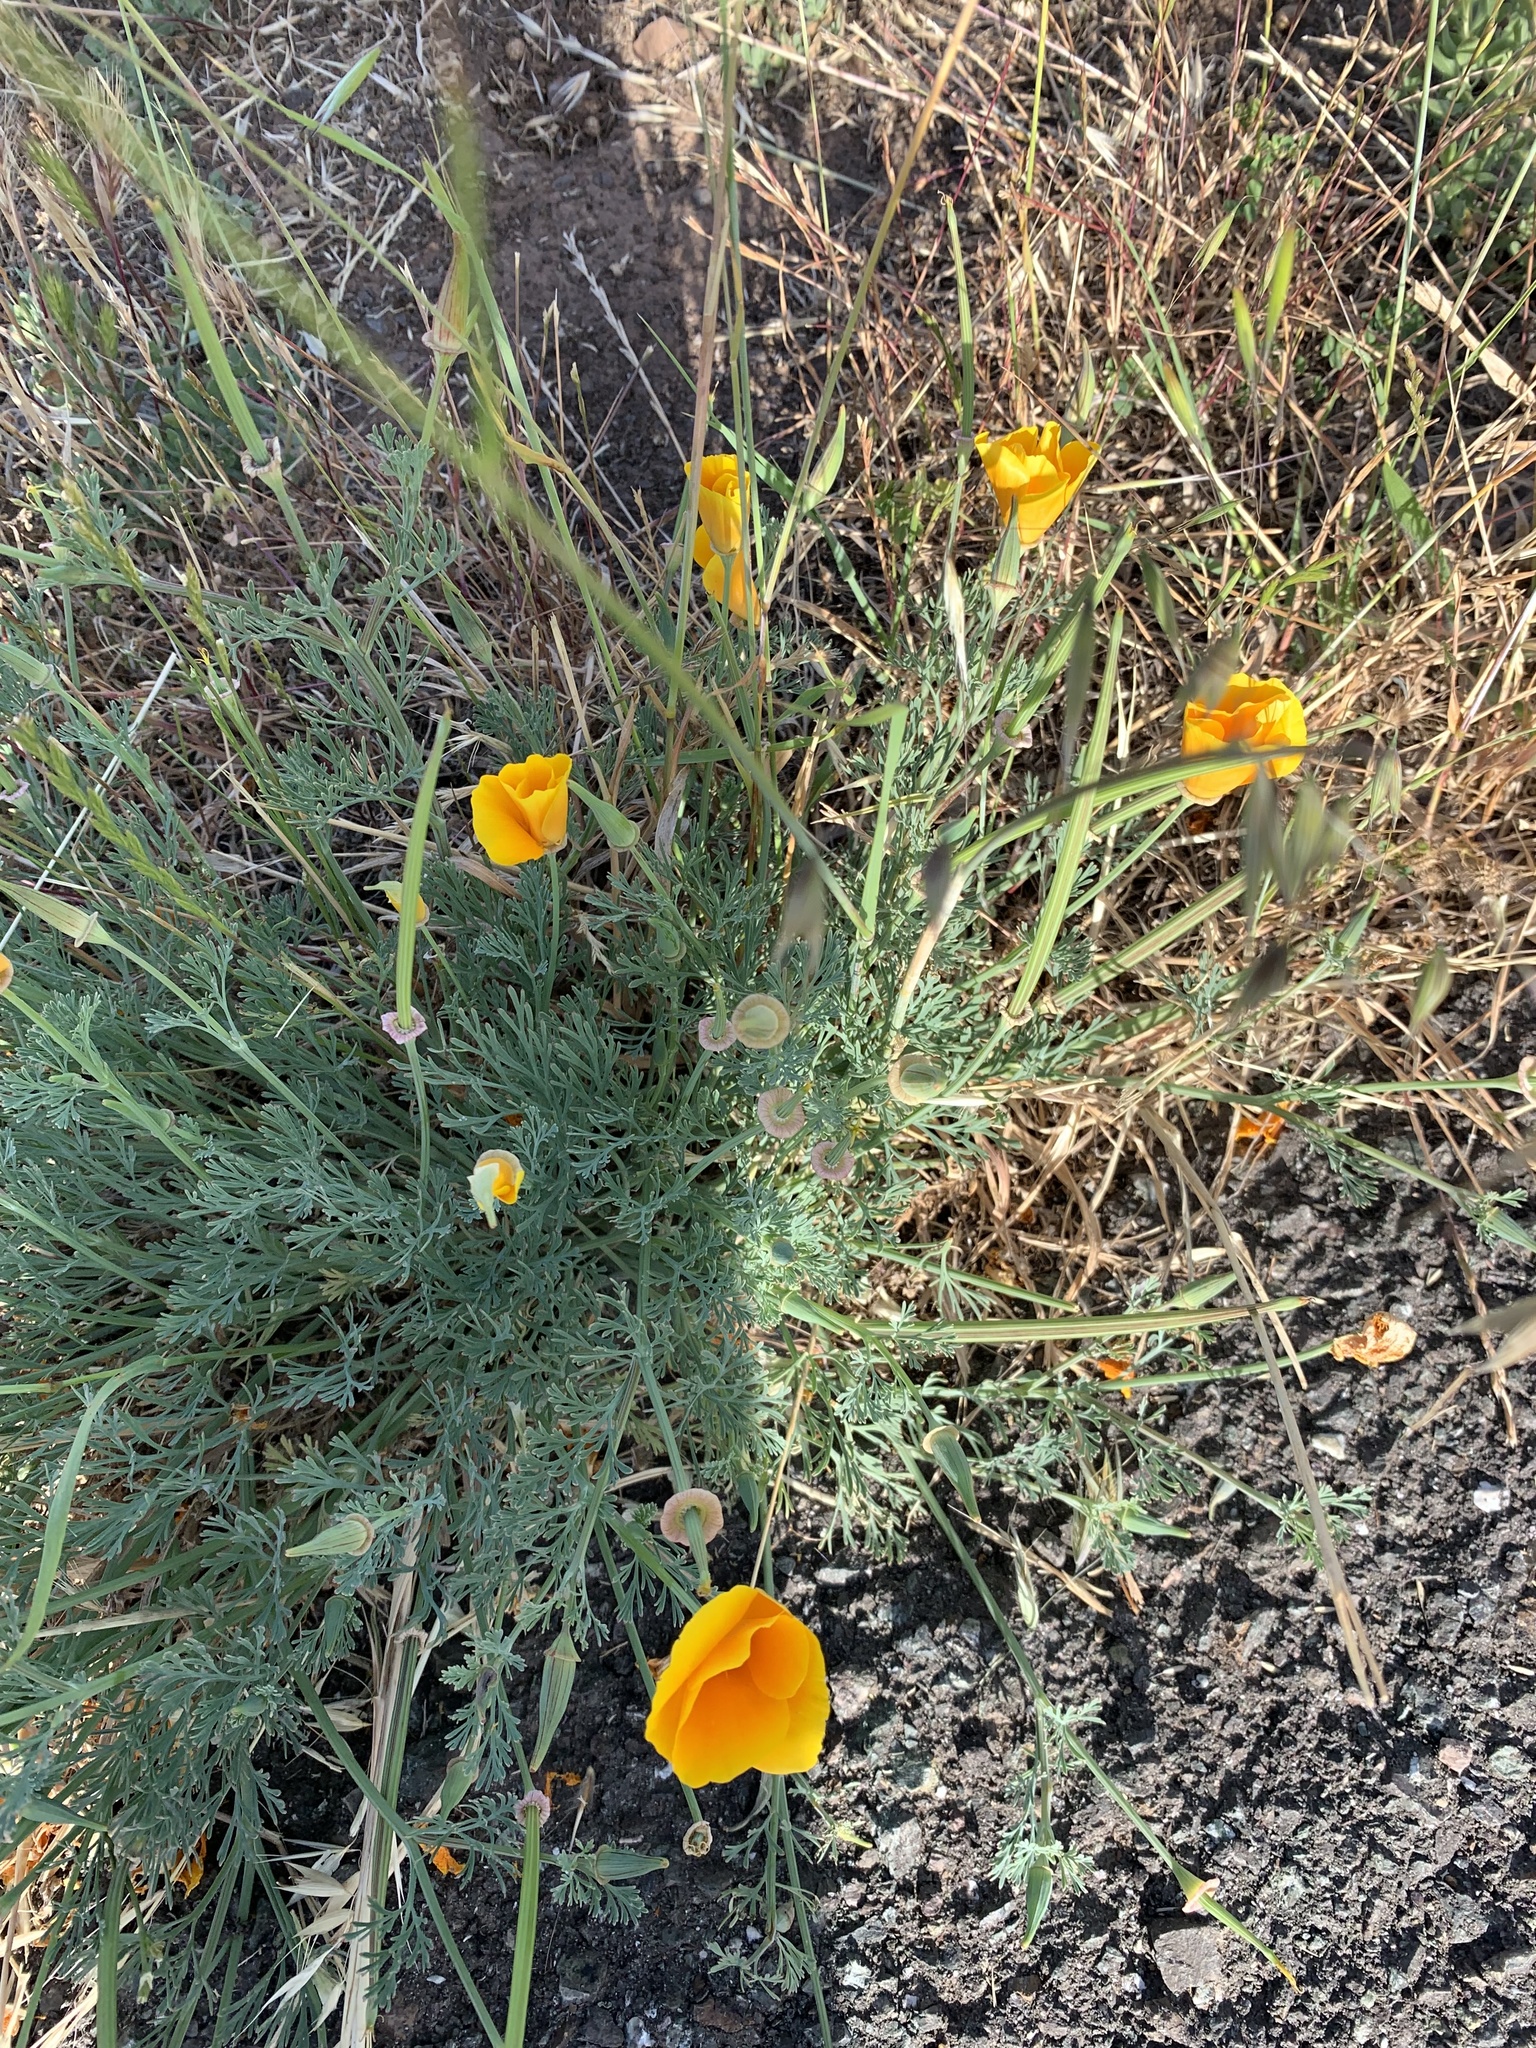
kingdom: Plantae
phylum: Tracheophyta
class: Magnoliopsida
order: Ranunculales
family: Papaveraceae
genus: Eschscholzia
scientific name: Eschscholzia californica
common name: California poppy
